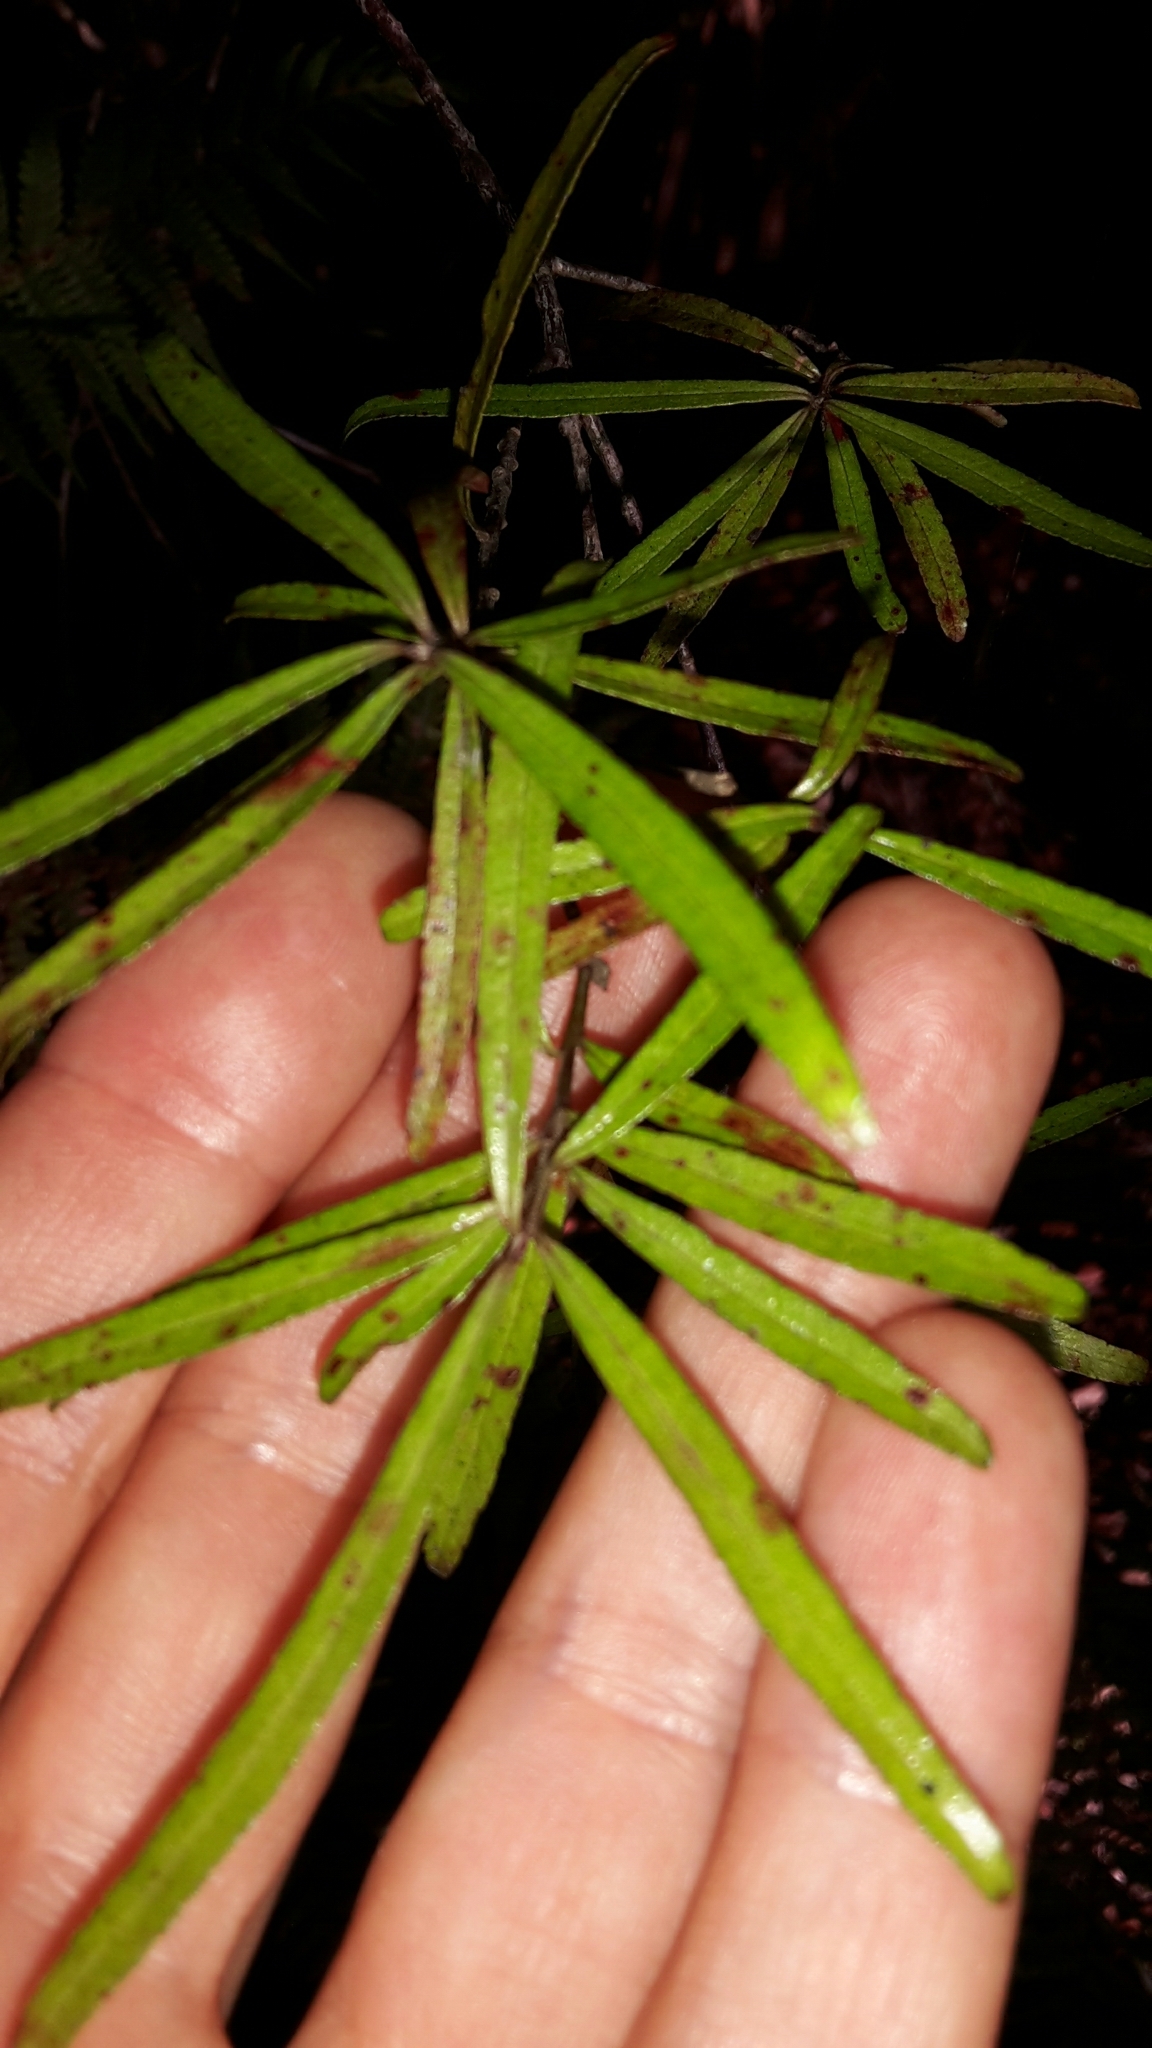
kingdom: Plantae
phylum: Tracheophyta
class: Magnoliopsida
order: Sapindales
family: Rutaceae
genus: Leionema
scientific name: Leionema nudum
